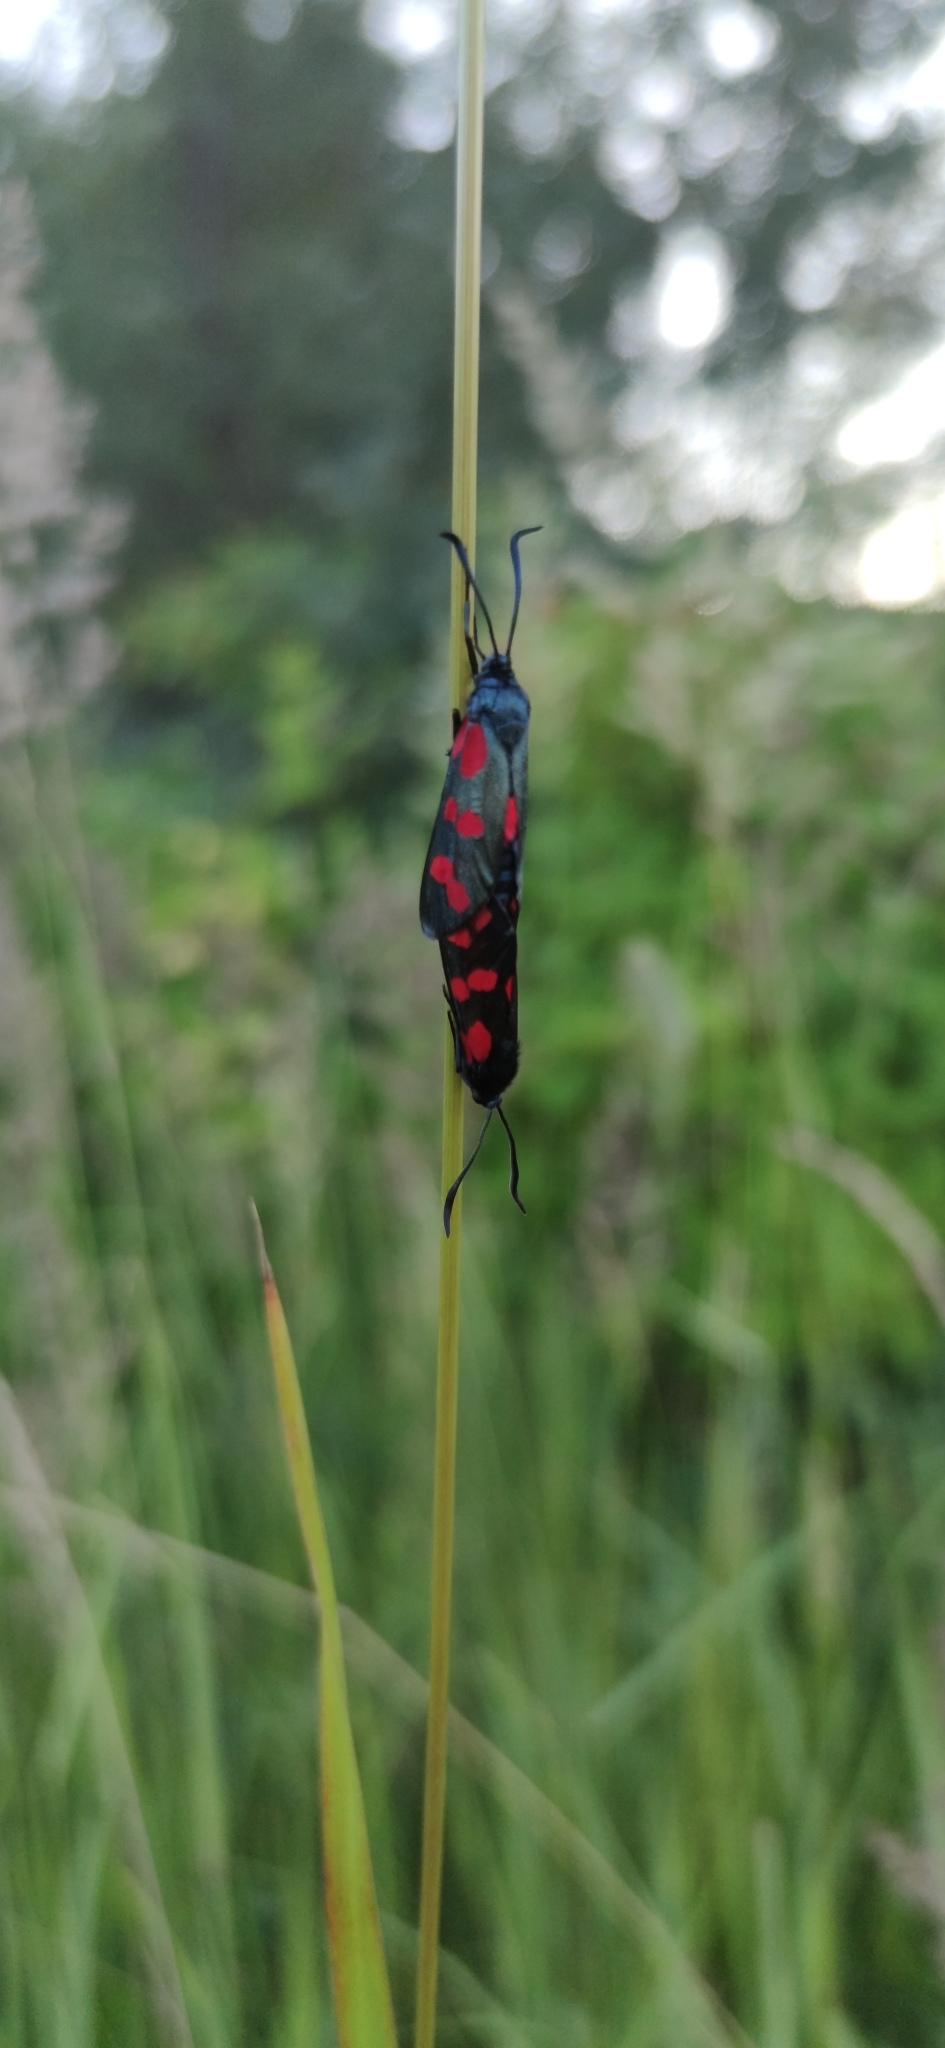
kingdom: Animalia
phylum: Arthropoda
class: Insecta
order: Lepidoptera
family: Zygaenidae
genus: Zygaena
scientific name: Zygaena filipendulae
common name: Six-spot burnet
